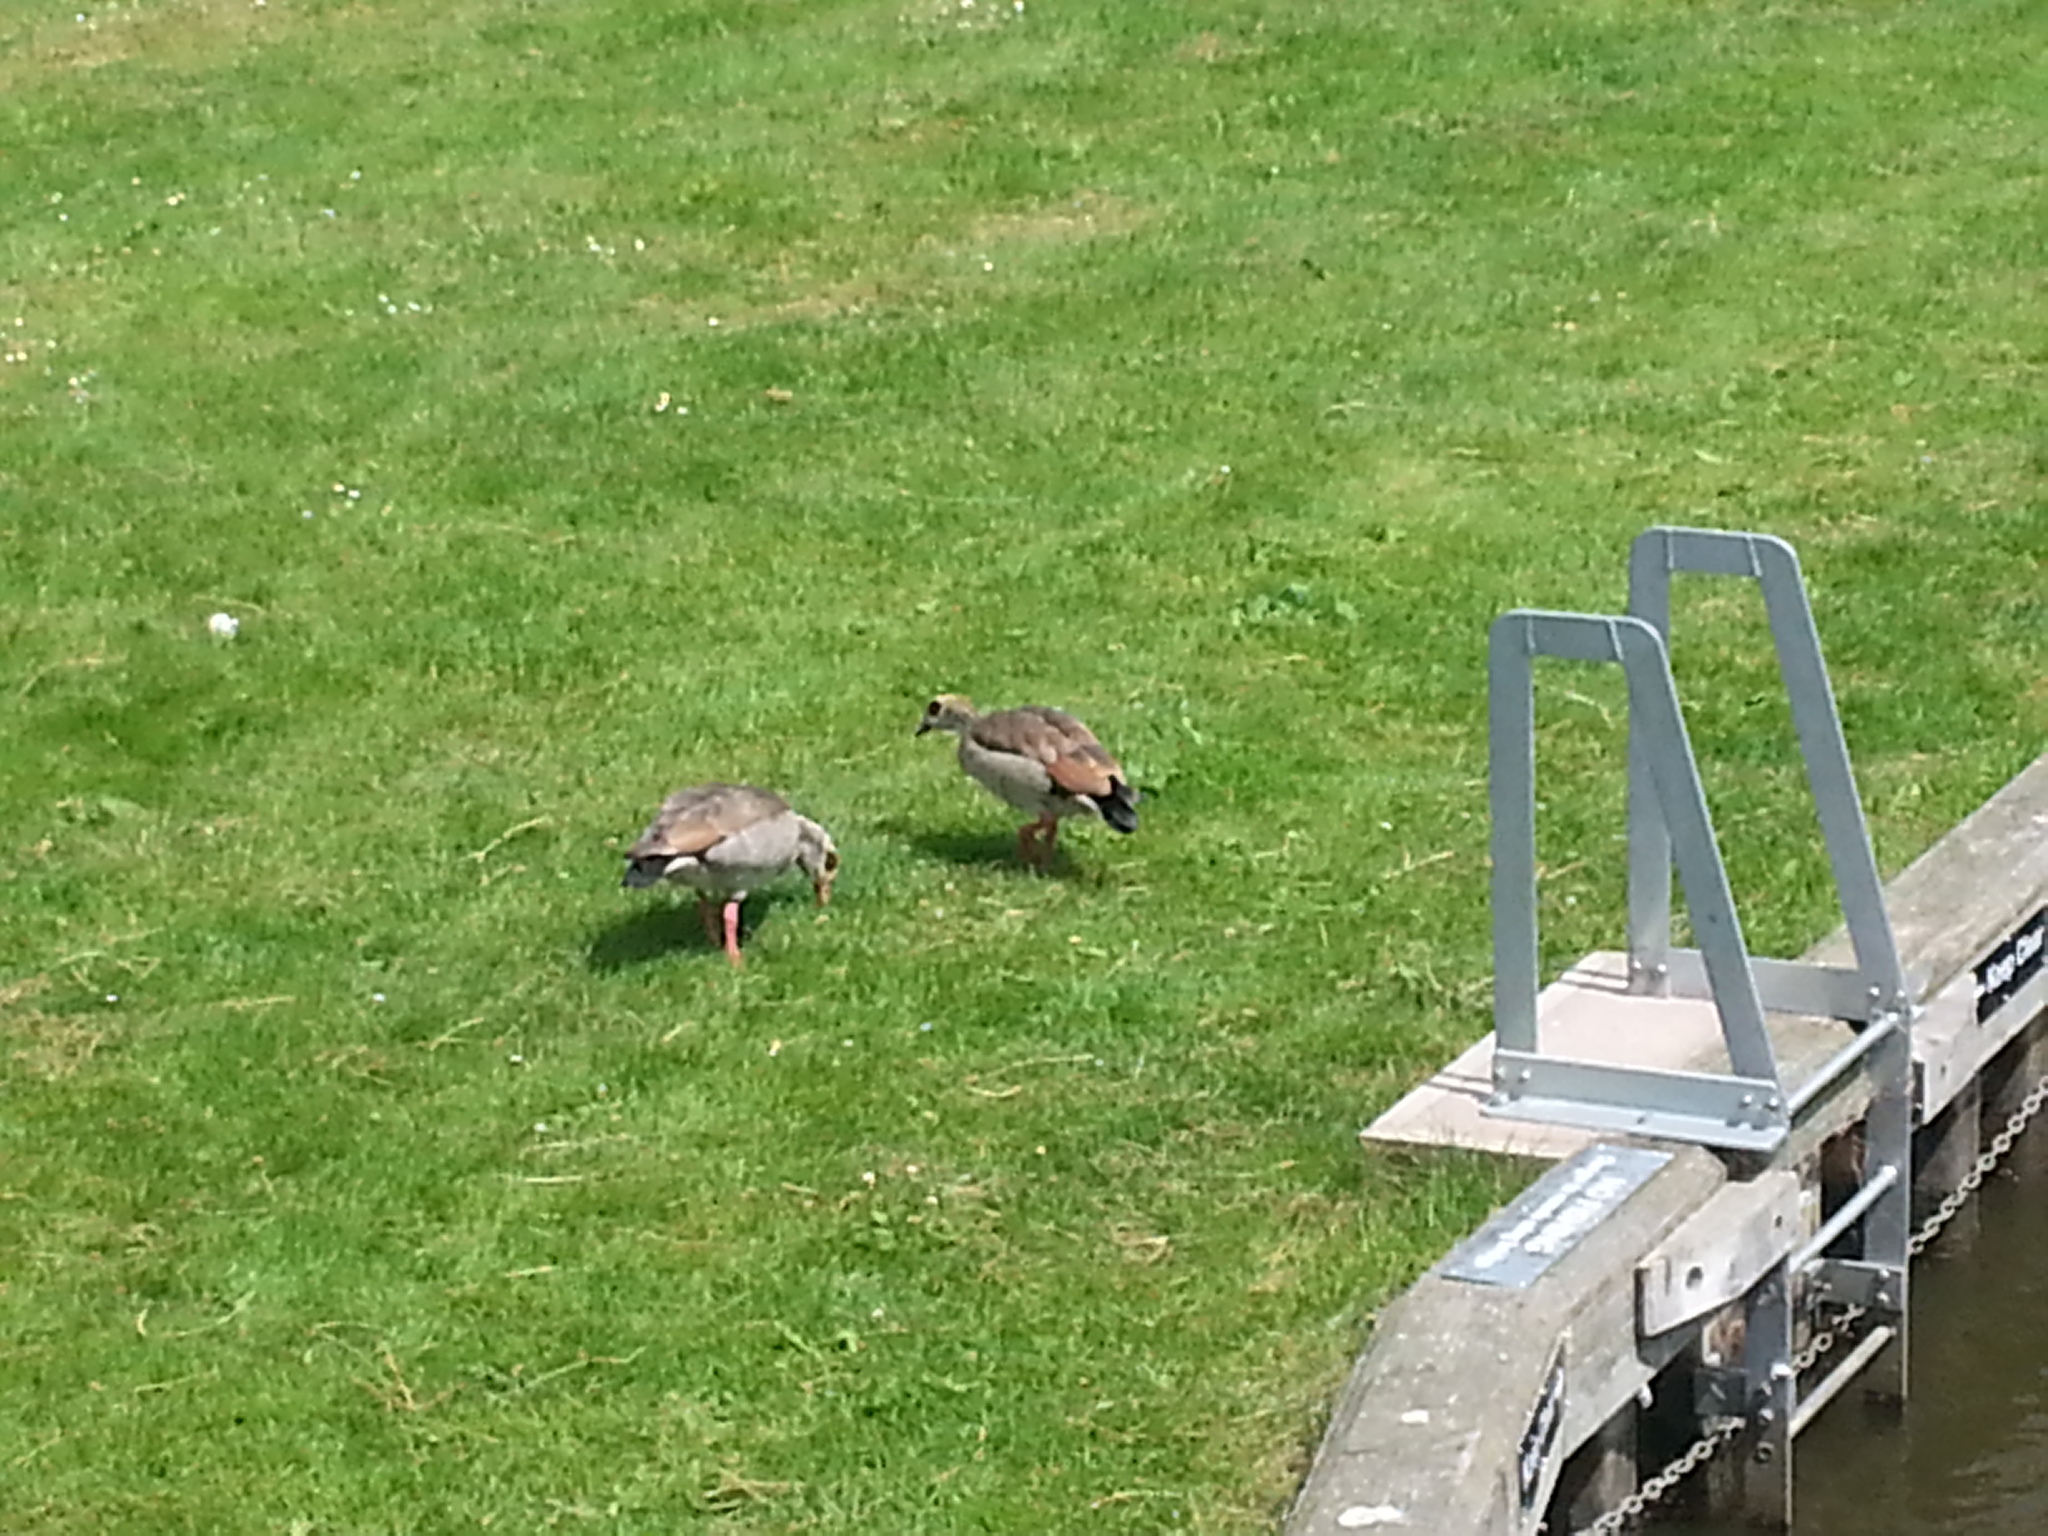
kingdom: Animalia
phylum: Chordata
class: Aves
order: Anseriformes
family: Anatidae
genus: Alopochen
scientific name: Alopochen aegyptiaca
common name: Egyptian goose
